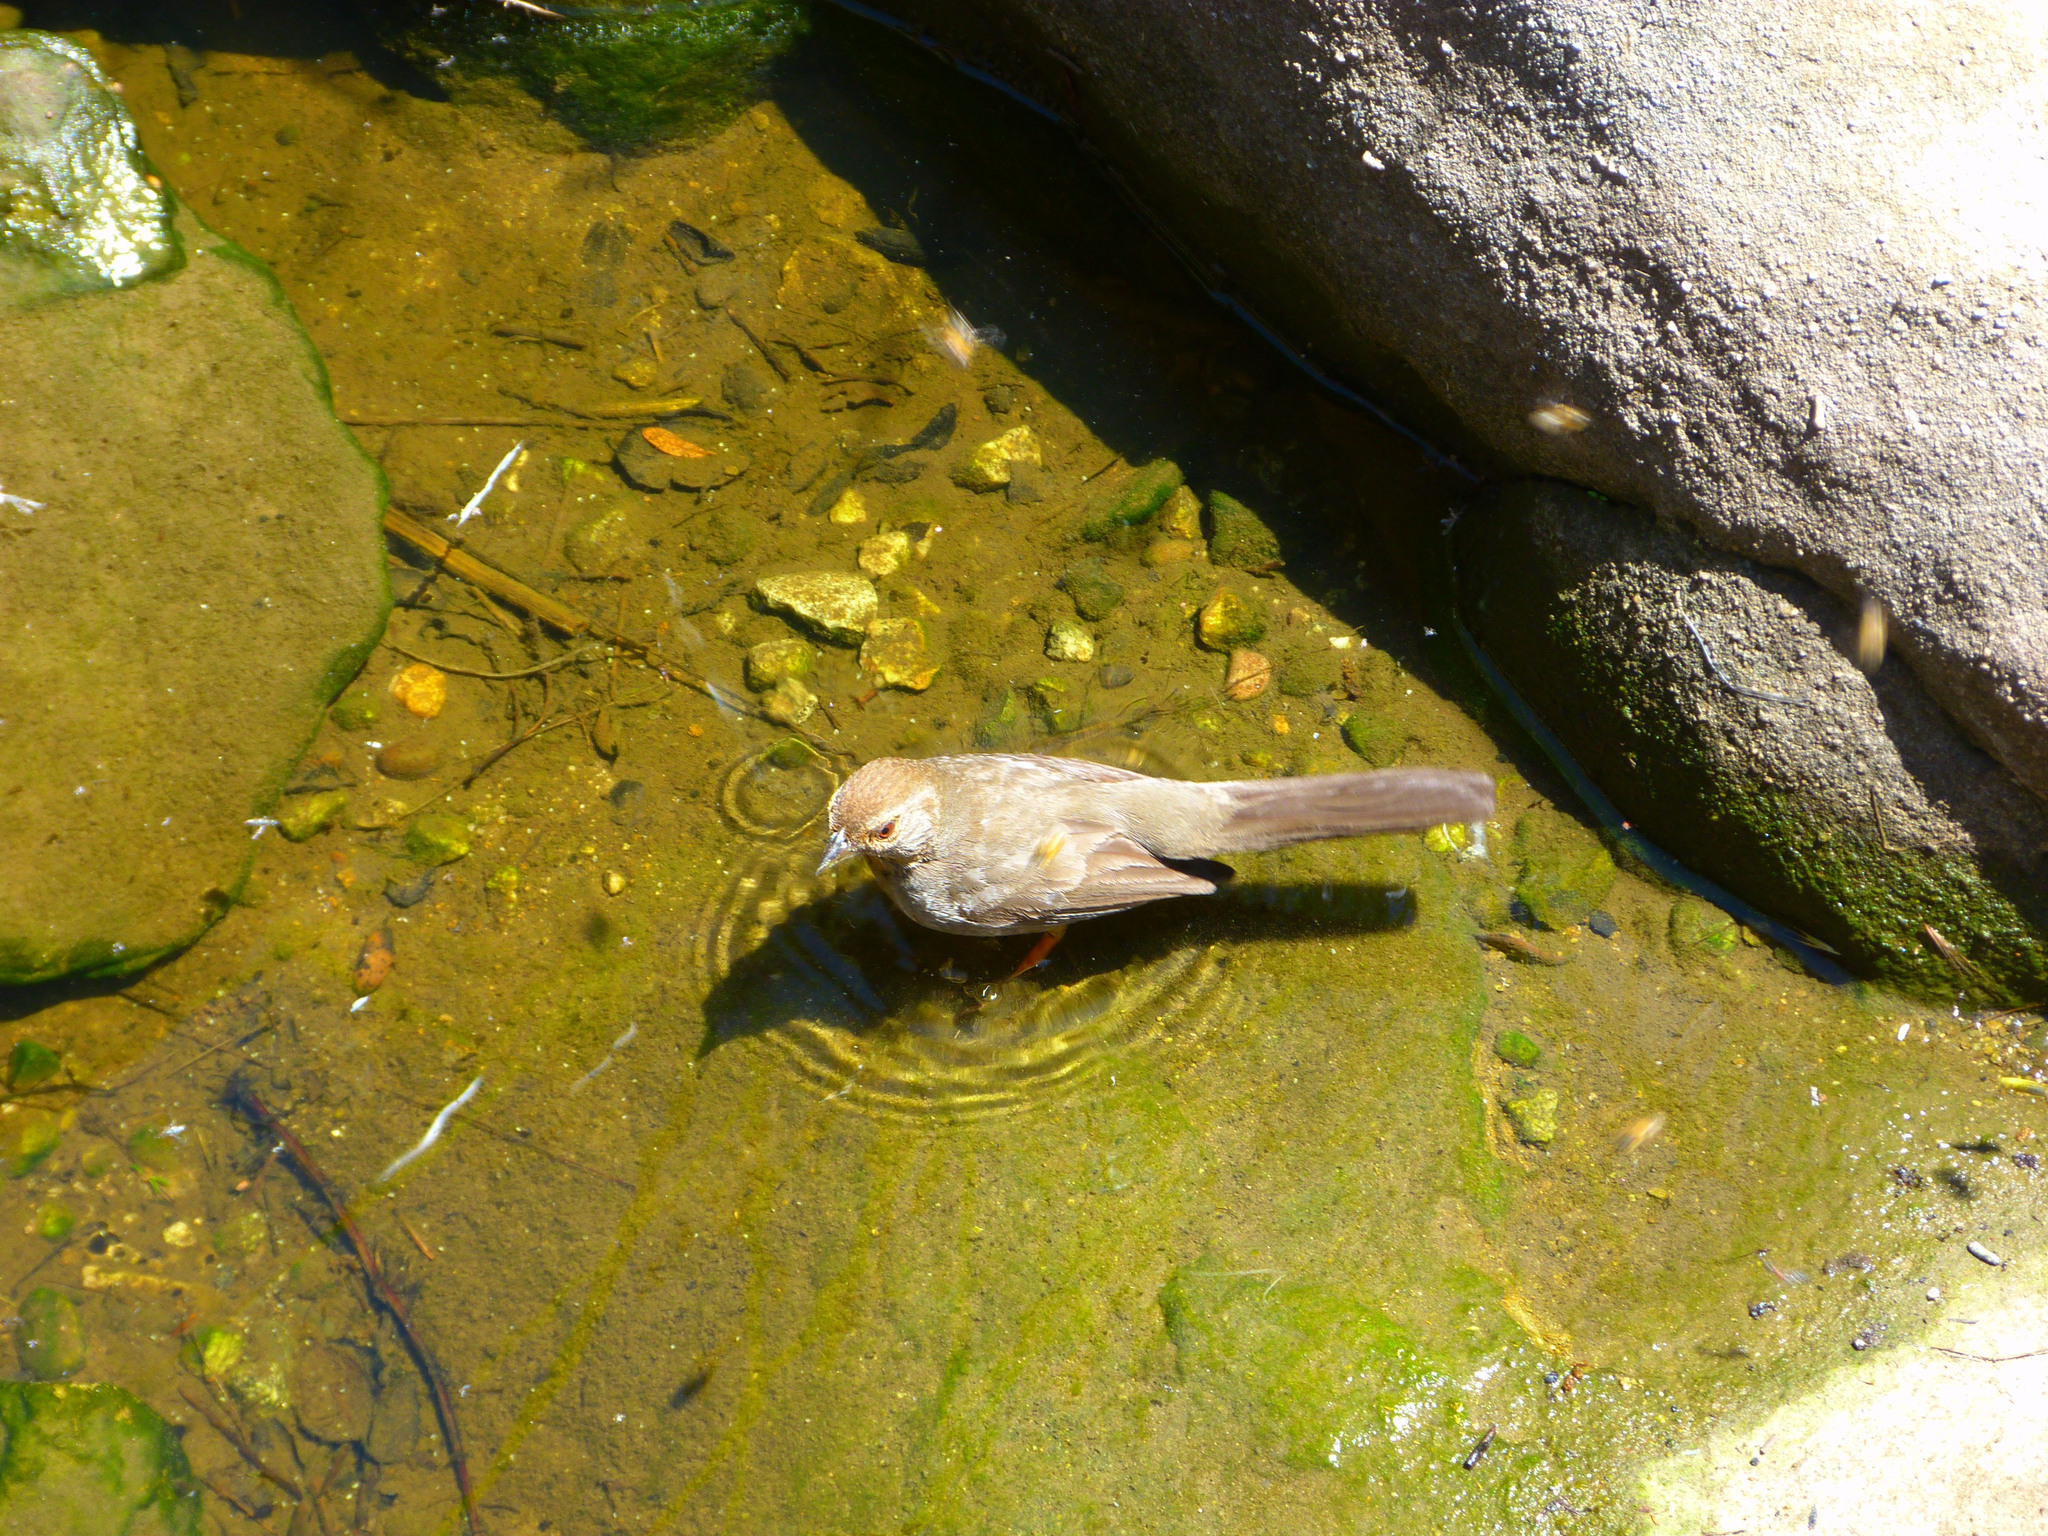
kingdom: Animalia
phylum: Chordata
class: Aves
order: Passeriformes
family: Passerellidae
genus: Melozone
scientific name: Melozone crissalis
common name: California towhee
